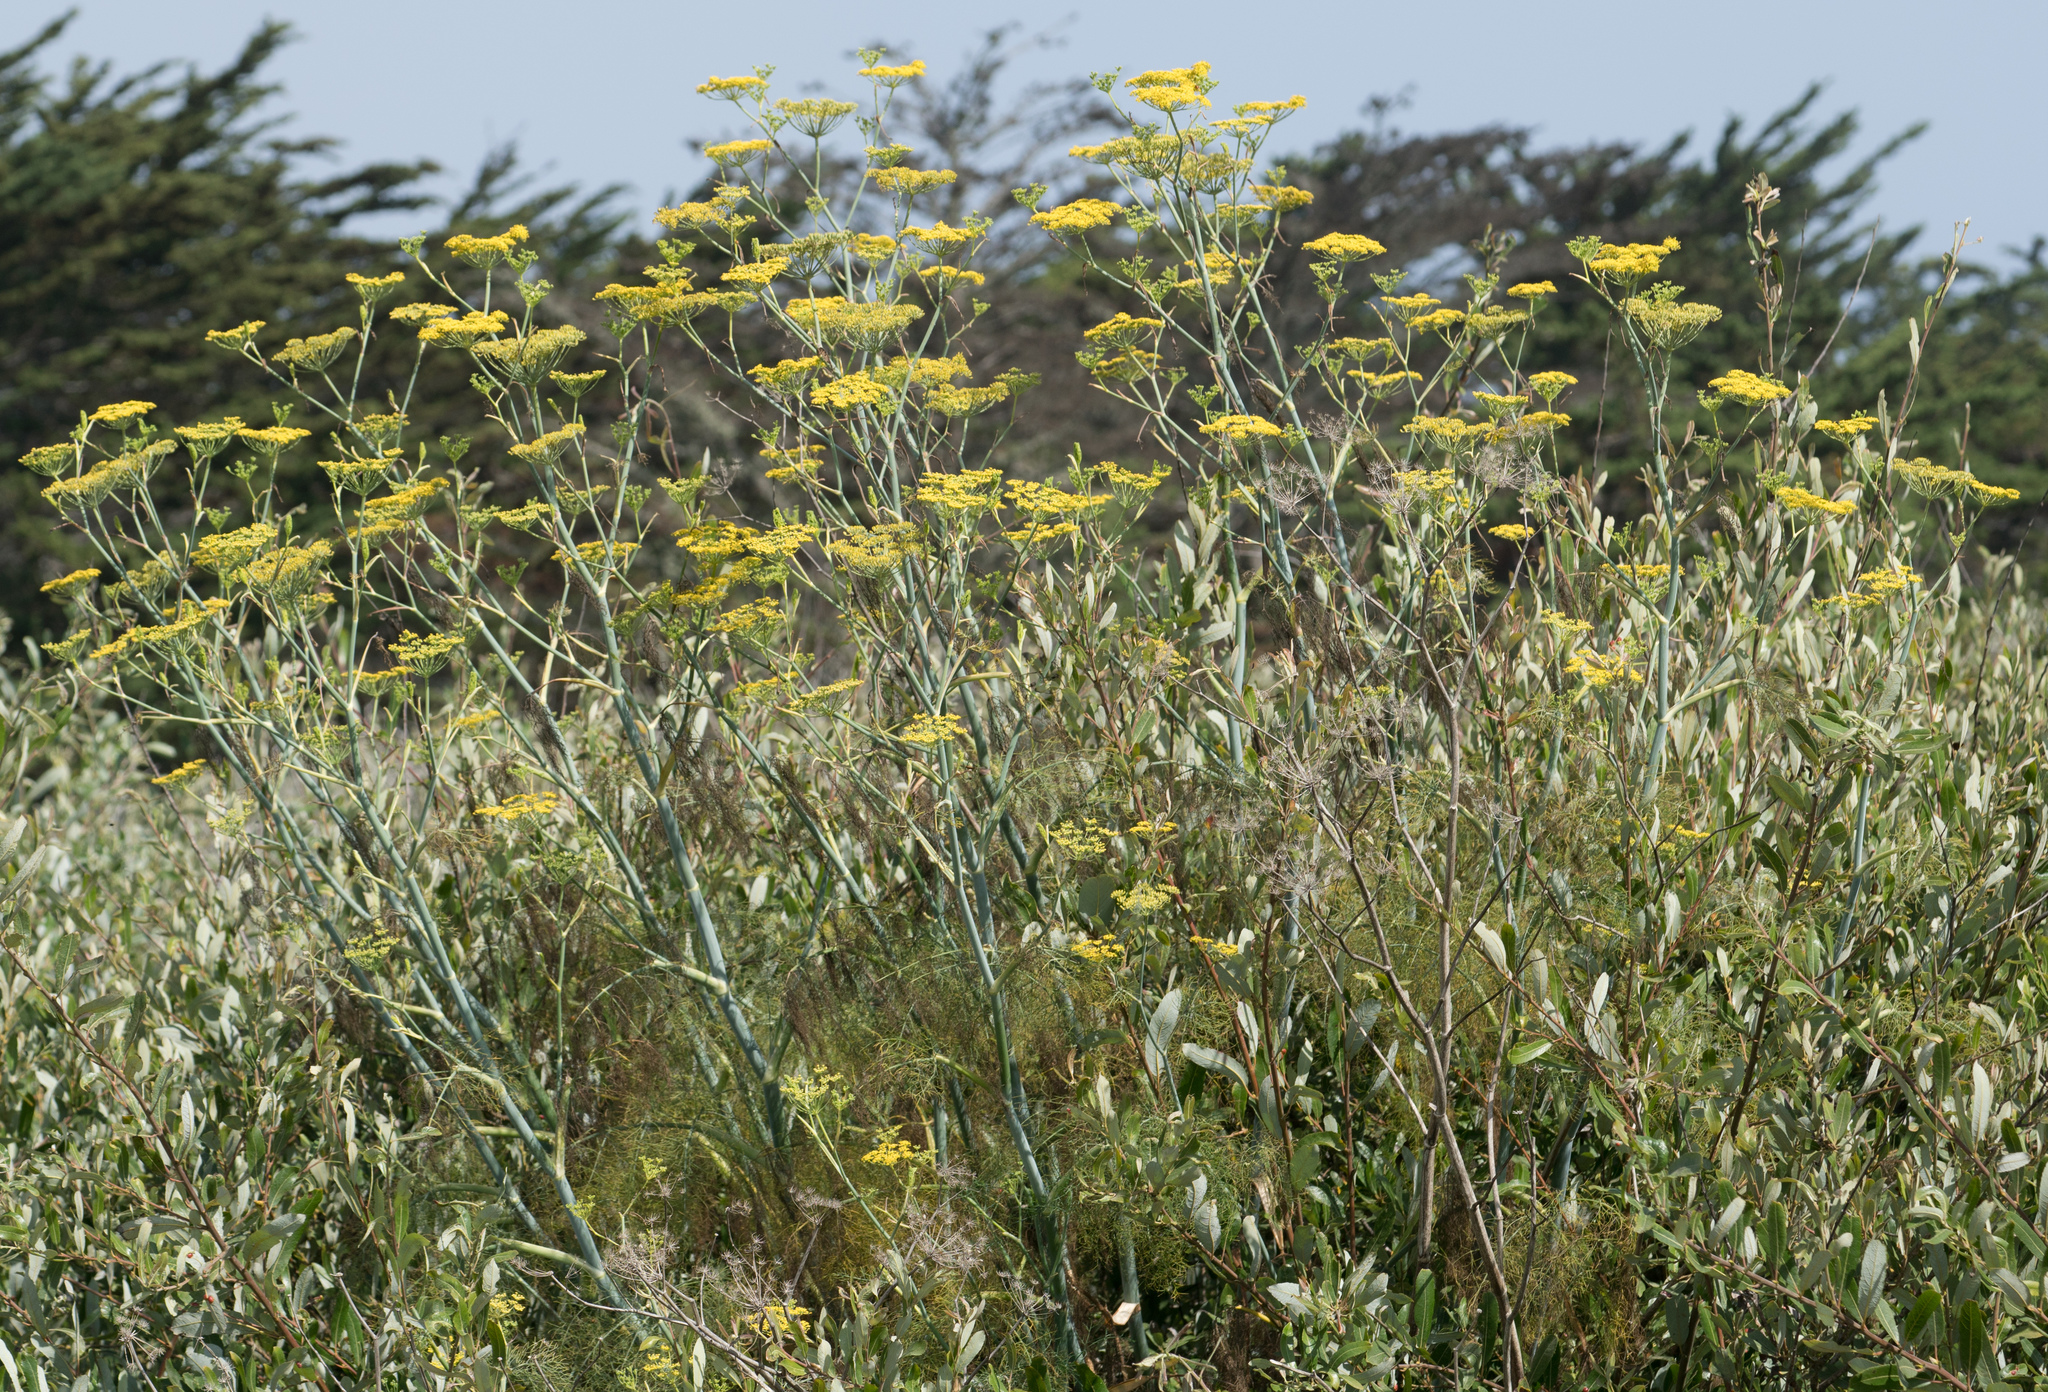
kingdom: Plantae
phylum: Tracheophyta
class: Magnoliopsida
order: Apiales
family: Apiaceae
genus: Foeniculum
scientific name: Foeniculum vulgare
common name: Fennel
